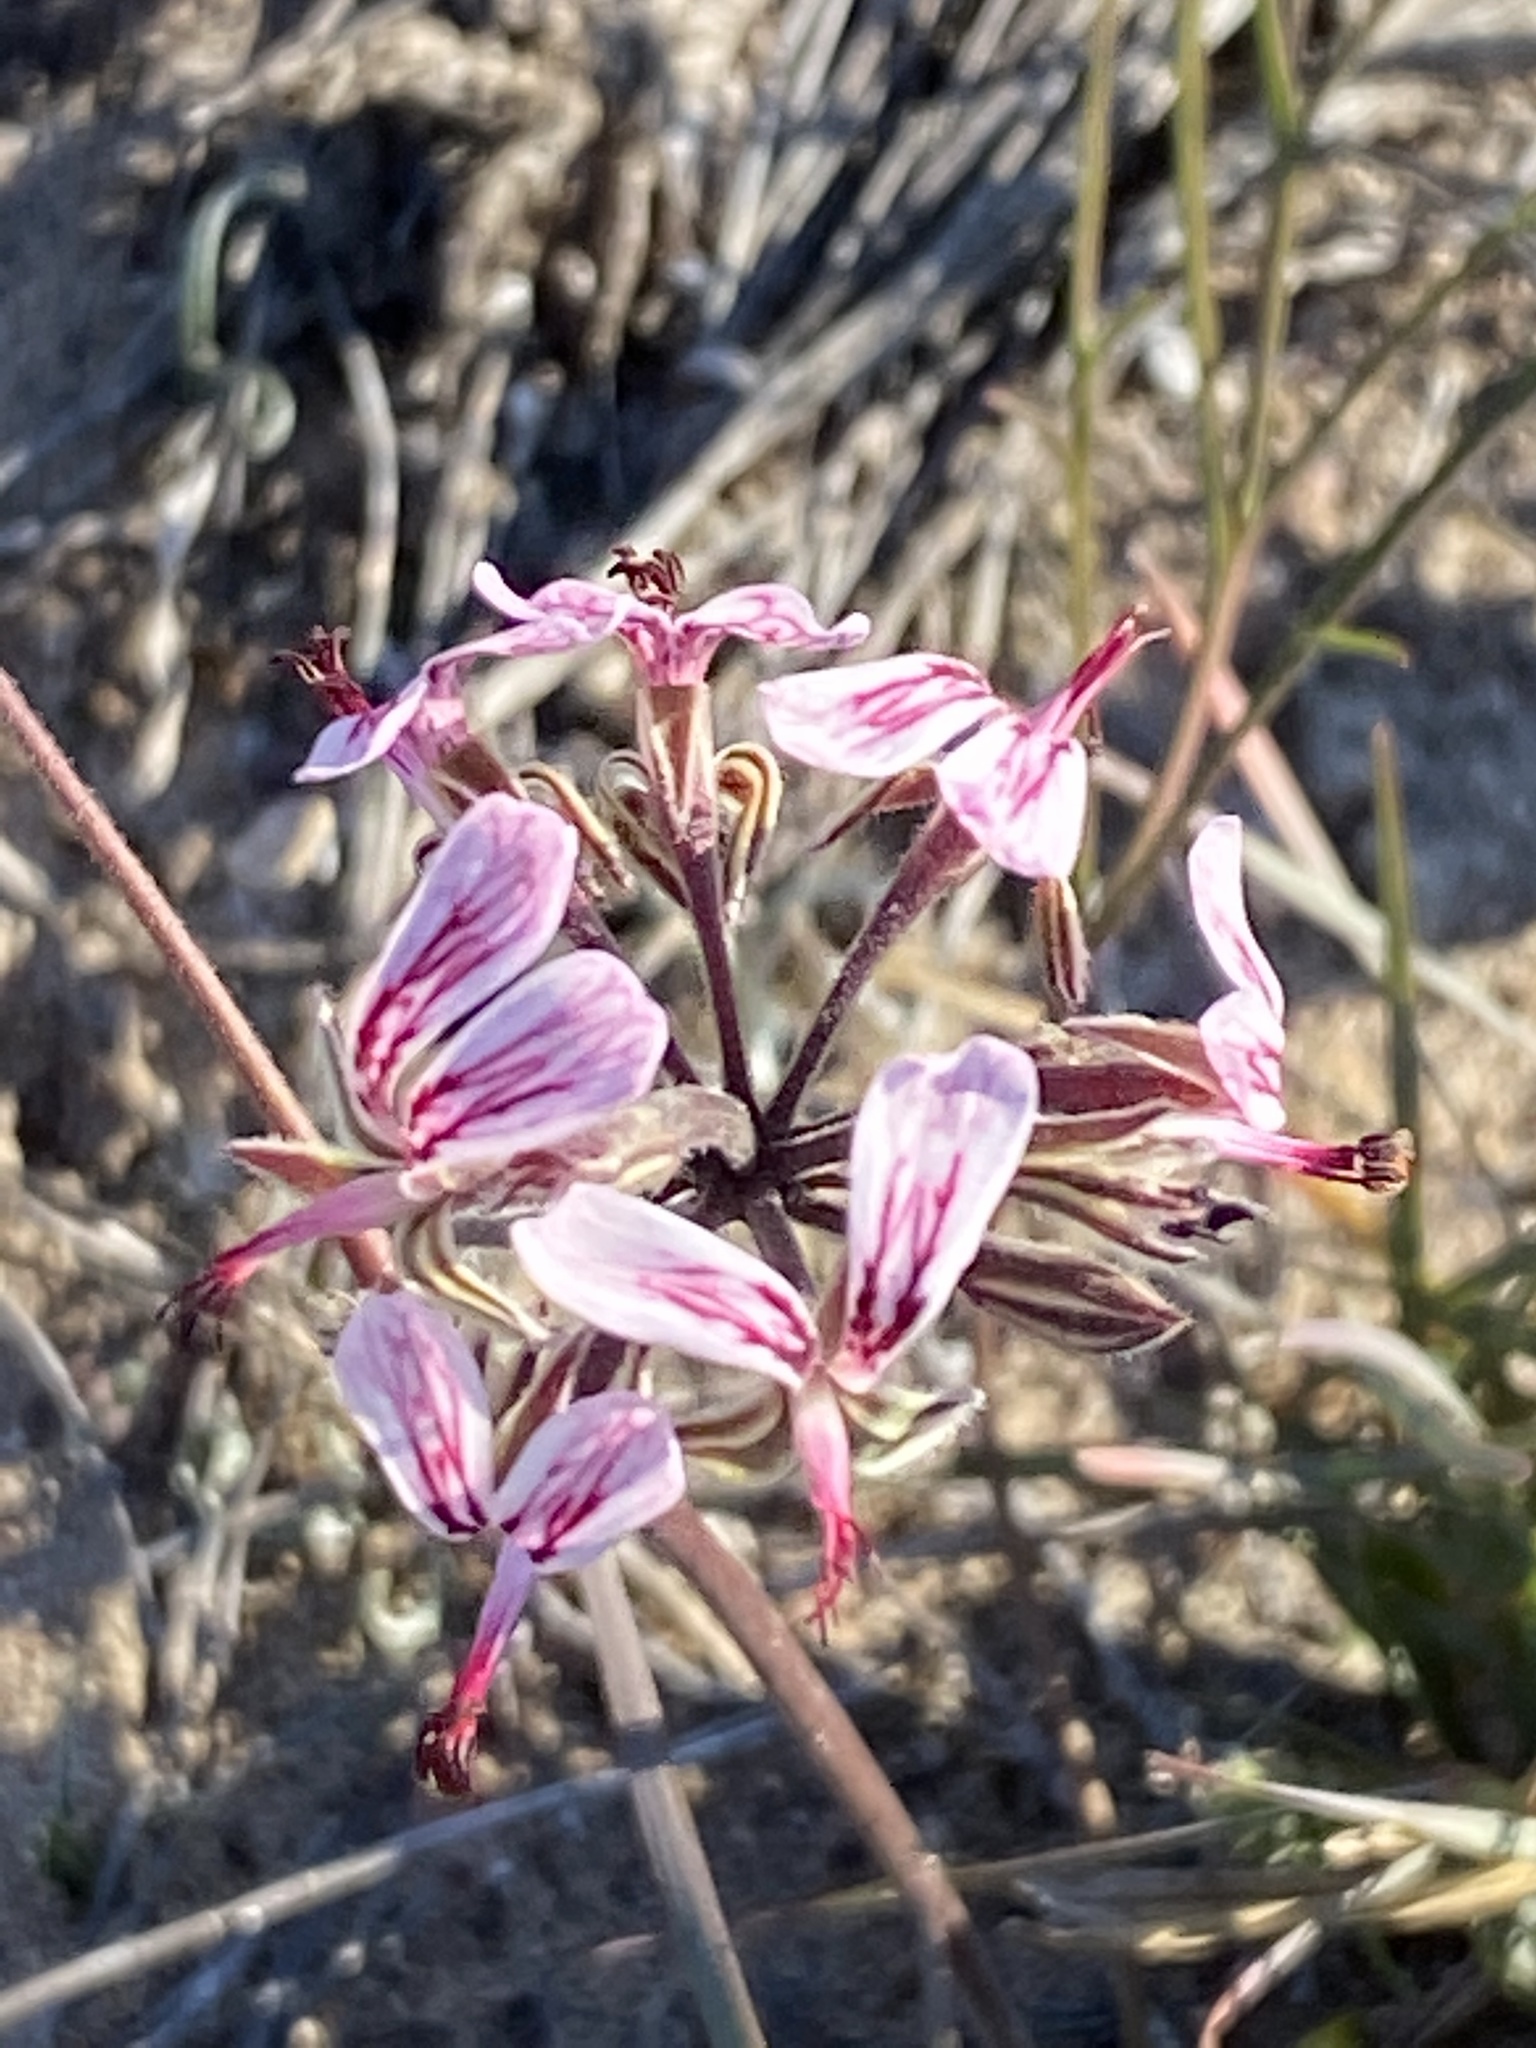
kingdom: Plantae
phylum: Tracheophyta
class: Magnoliopsida
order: Geraniales
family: Geraniaceae
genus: Pelargonium
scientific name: Pelargonium dipetalum
